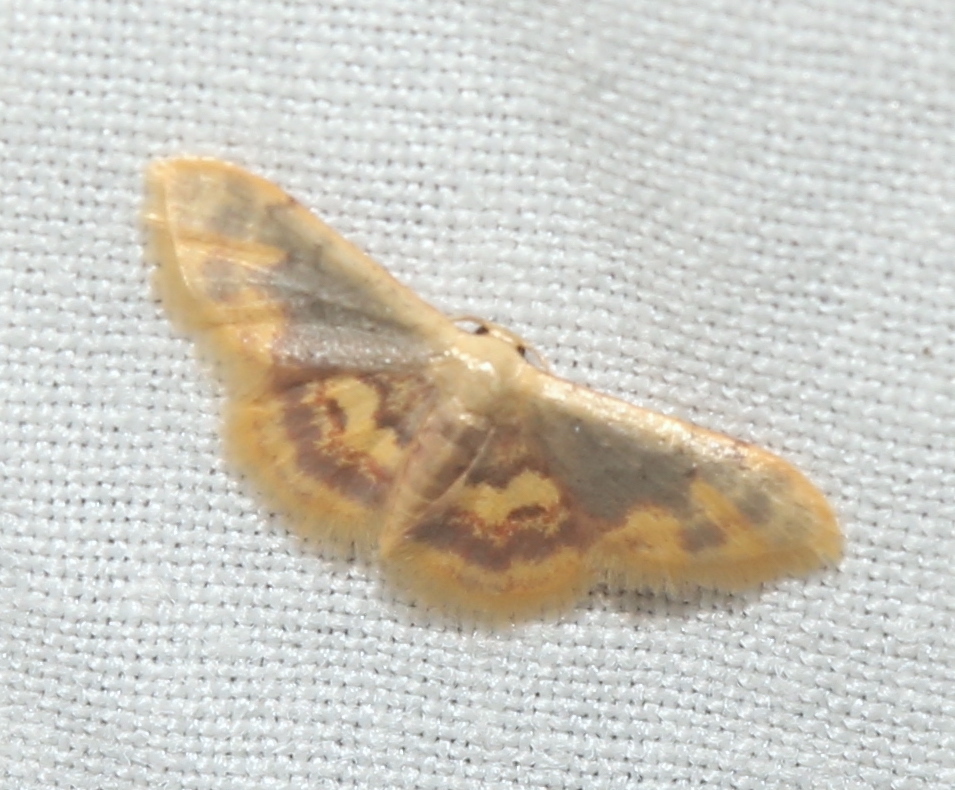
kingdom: Animalia
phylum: Arthropoda
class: Insecta
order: Lepidoptera
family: Geometridae
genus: Idaea
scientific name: Idaea scintillularia
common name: Diminutive wave
